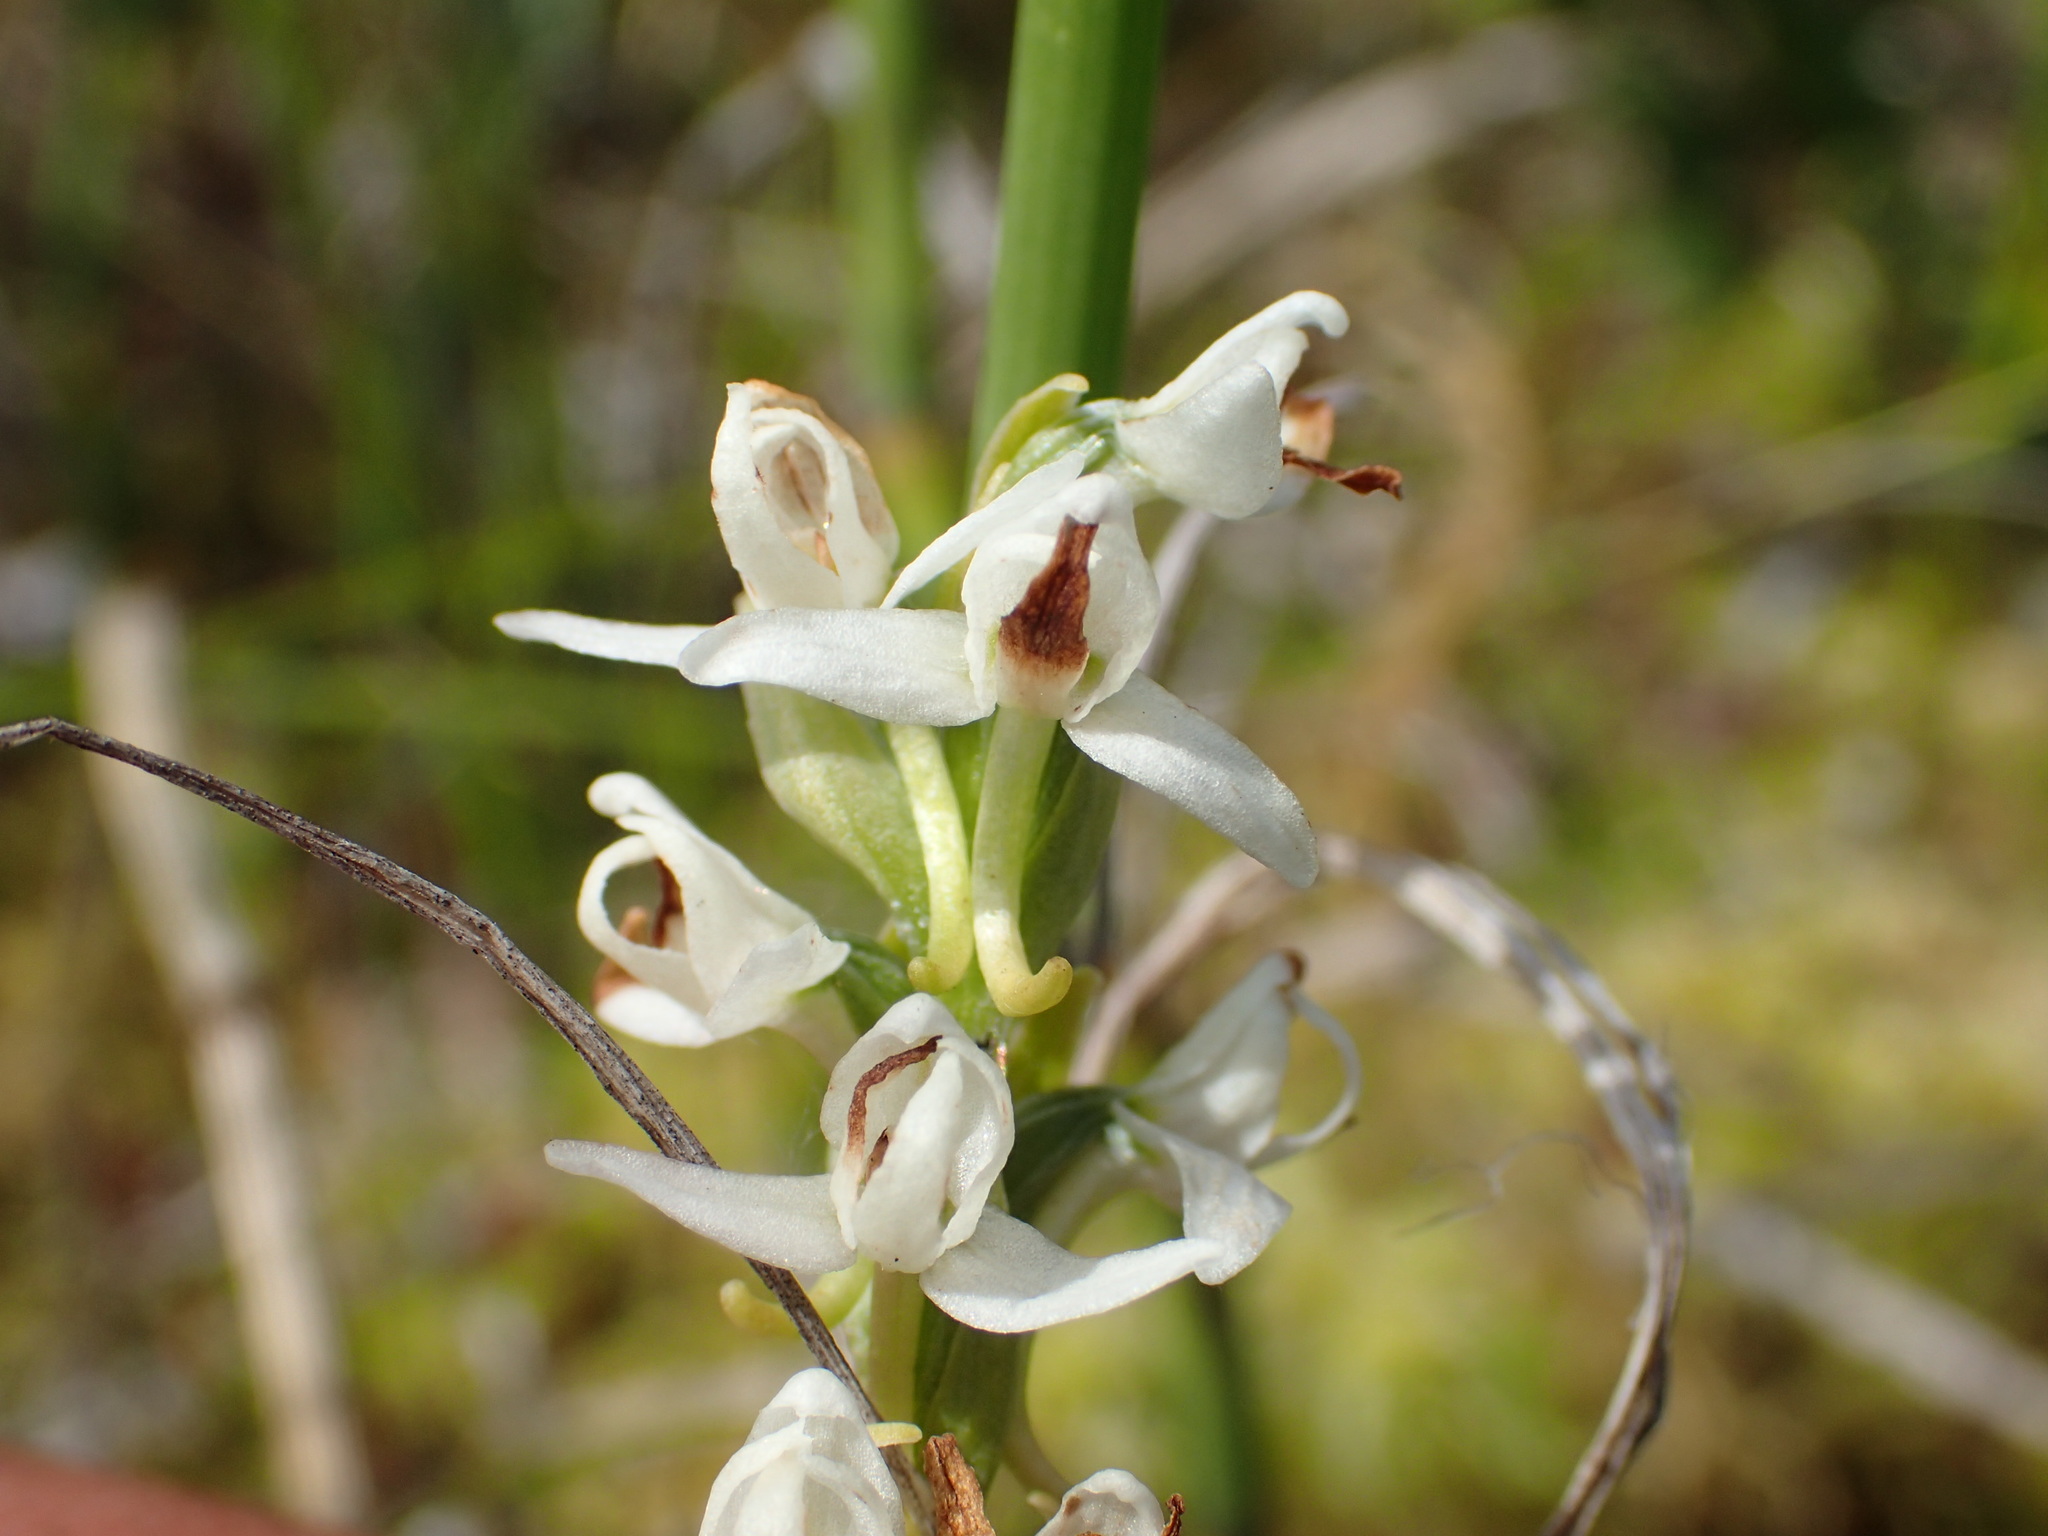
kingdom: Plantae
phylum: Tracheophyta
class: Liliopsida
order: Asparagales
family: Orchidaceae
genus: Platanthera
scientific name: Platanthera dilatata
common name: Bog candles
